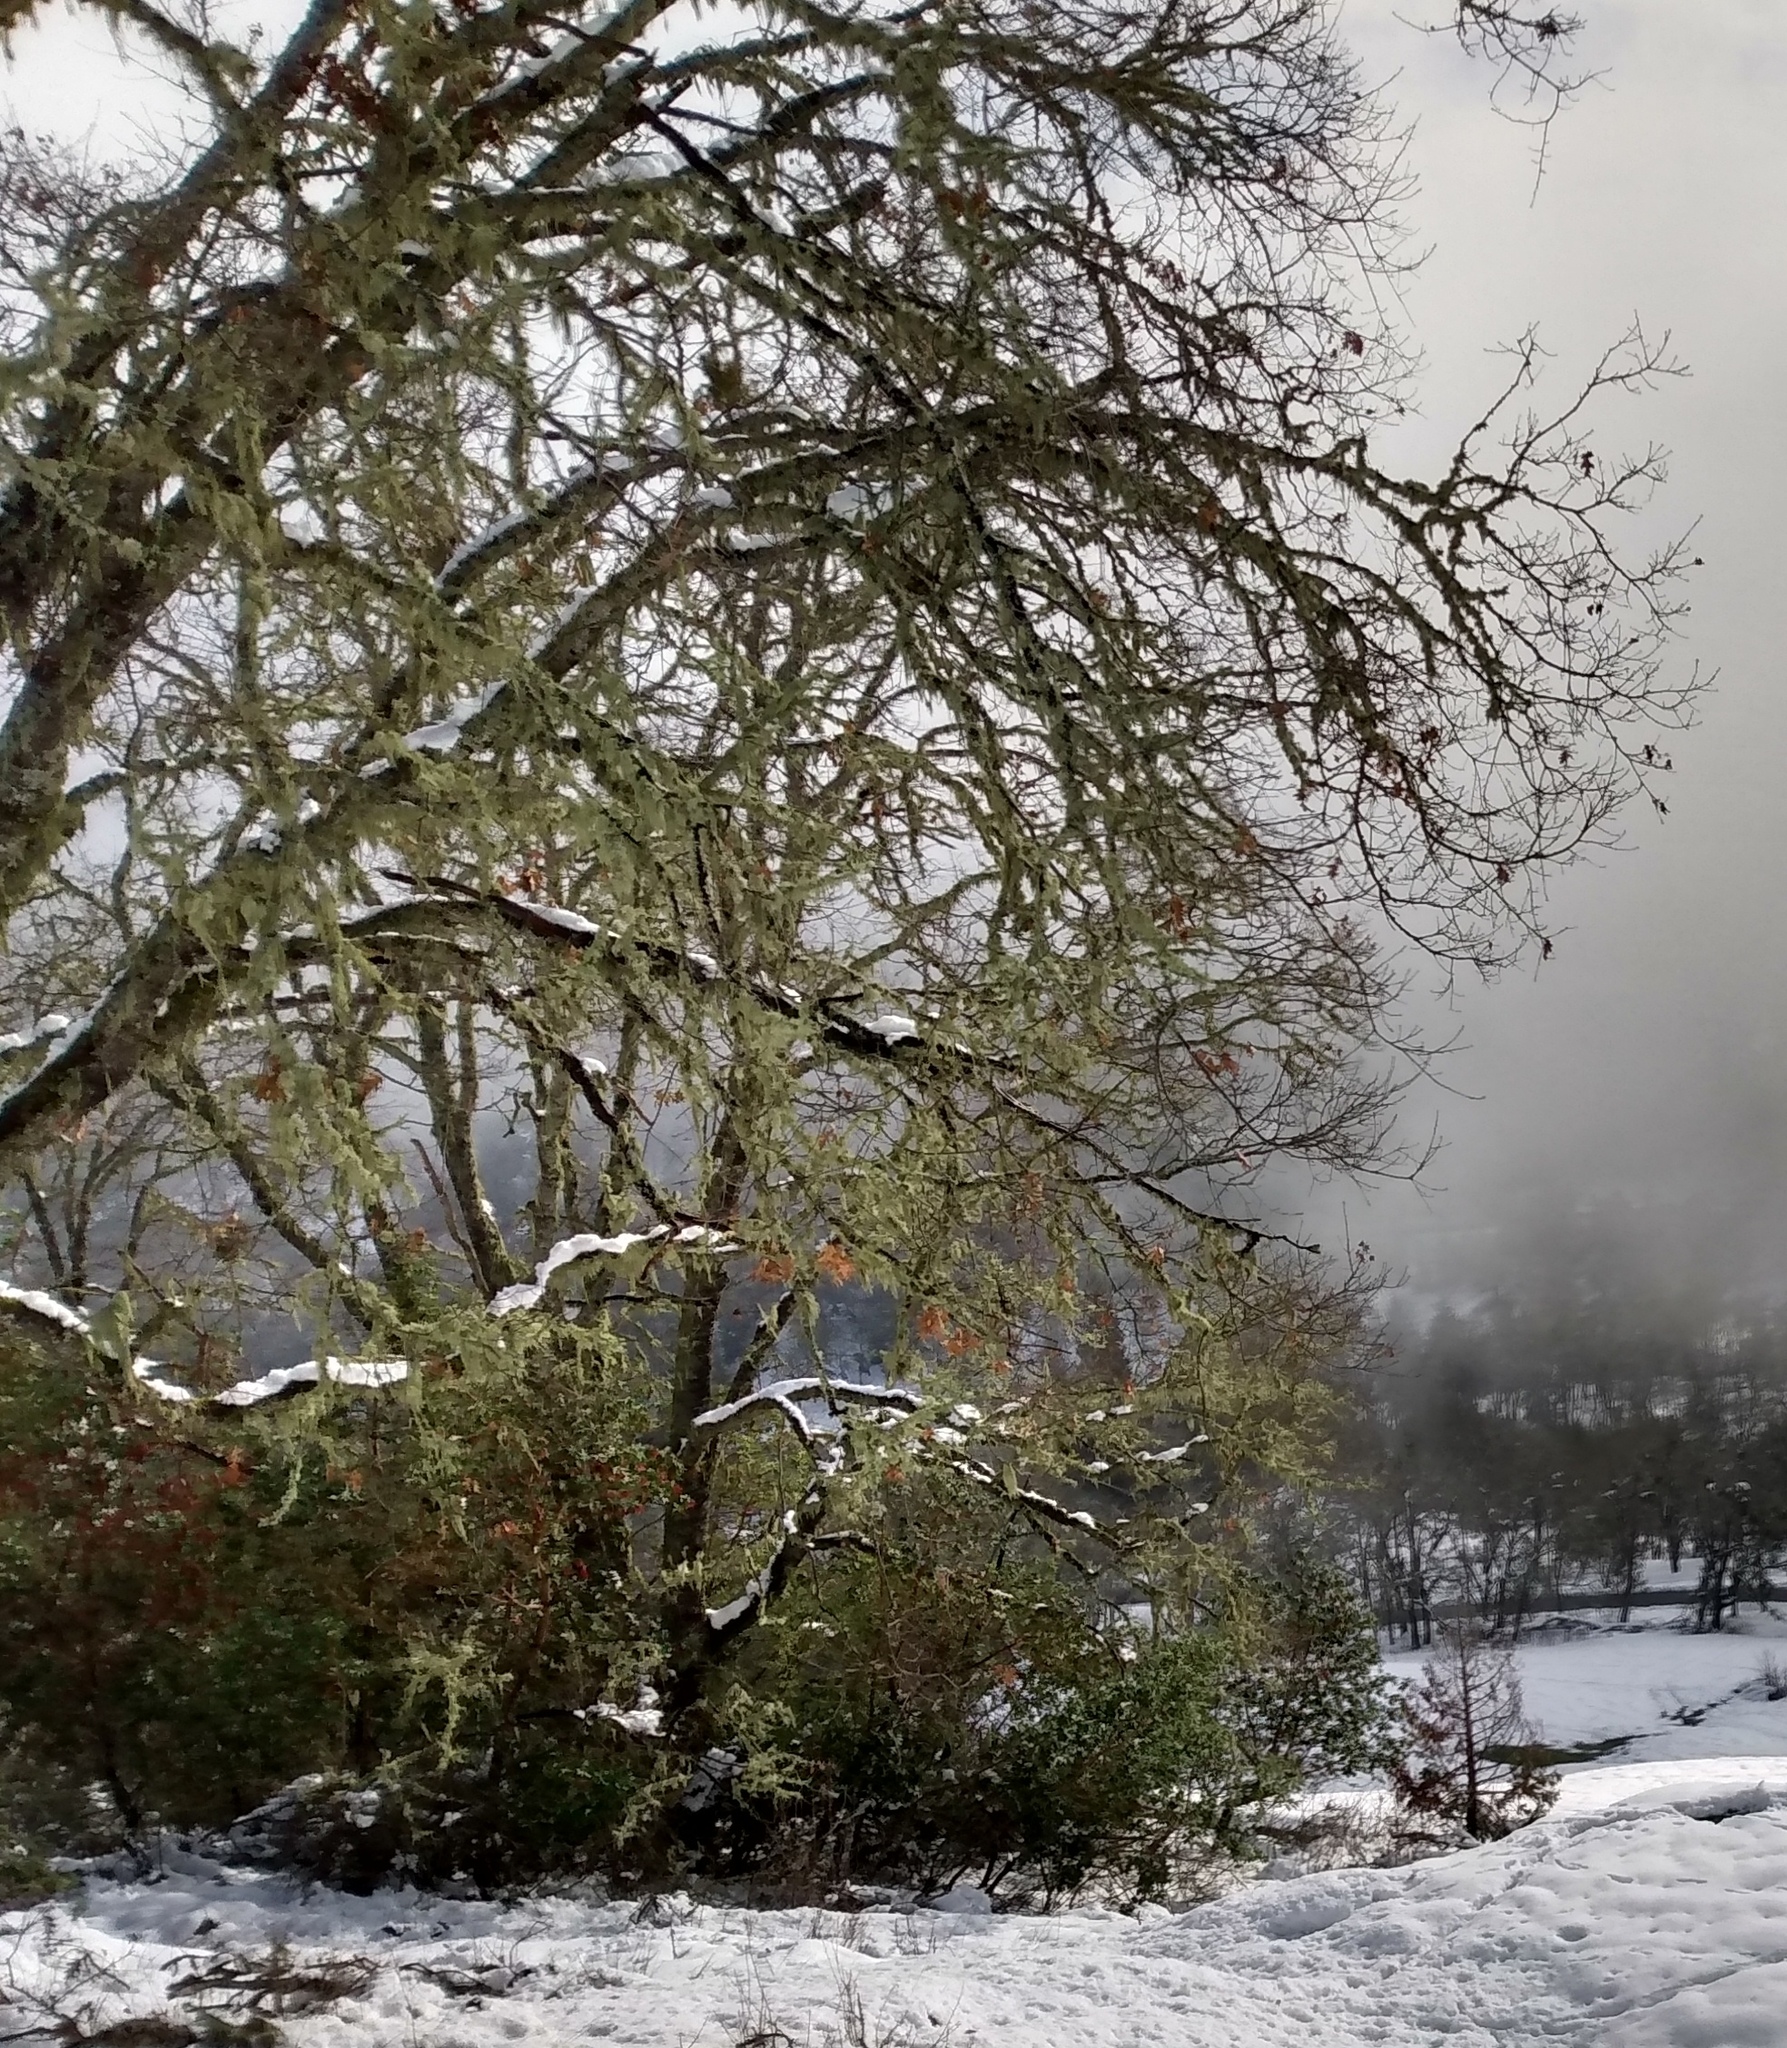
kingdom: Plantae
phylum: Tracheophyta
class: Magnoliopsida
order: Fagales
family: Fagaceae
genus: Quercus
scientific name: Quercus garryana
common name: Garry oak
